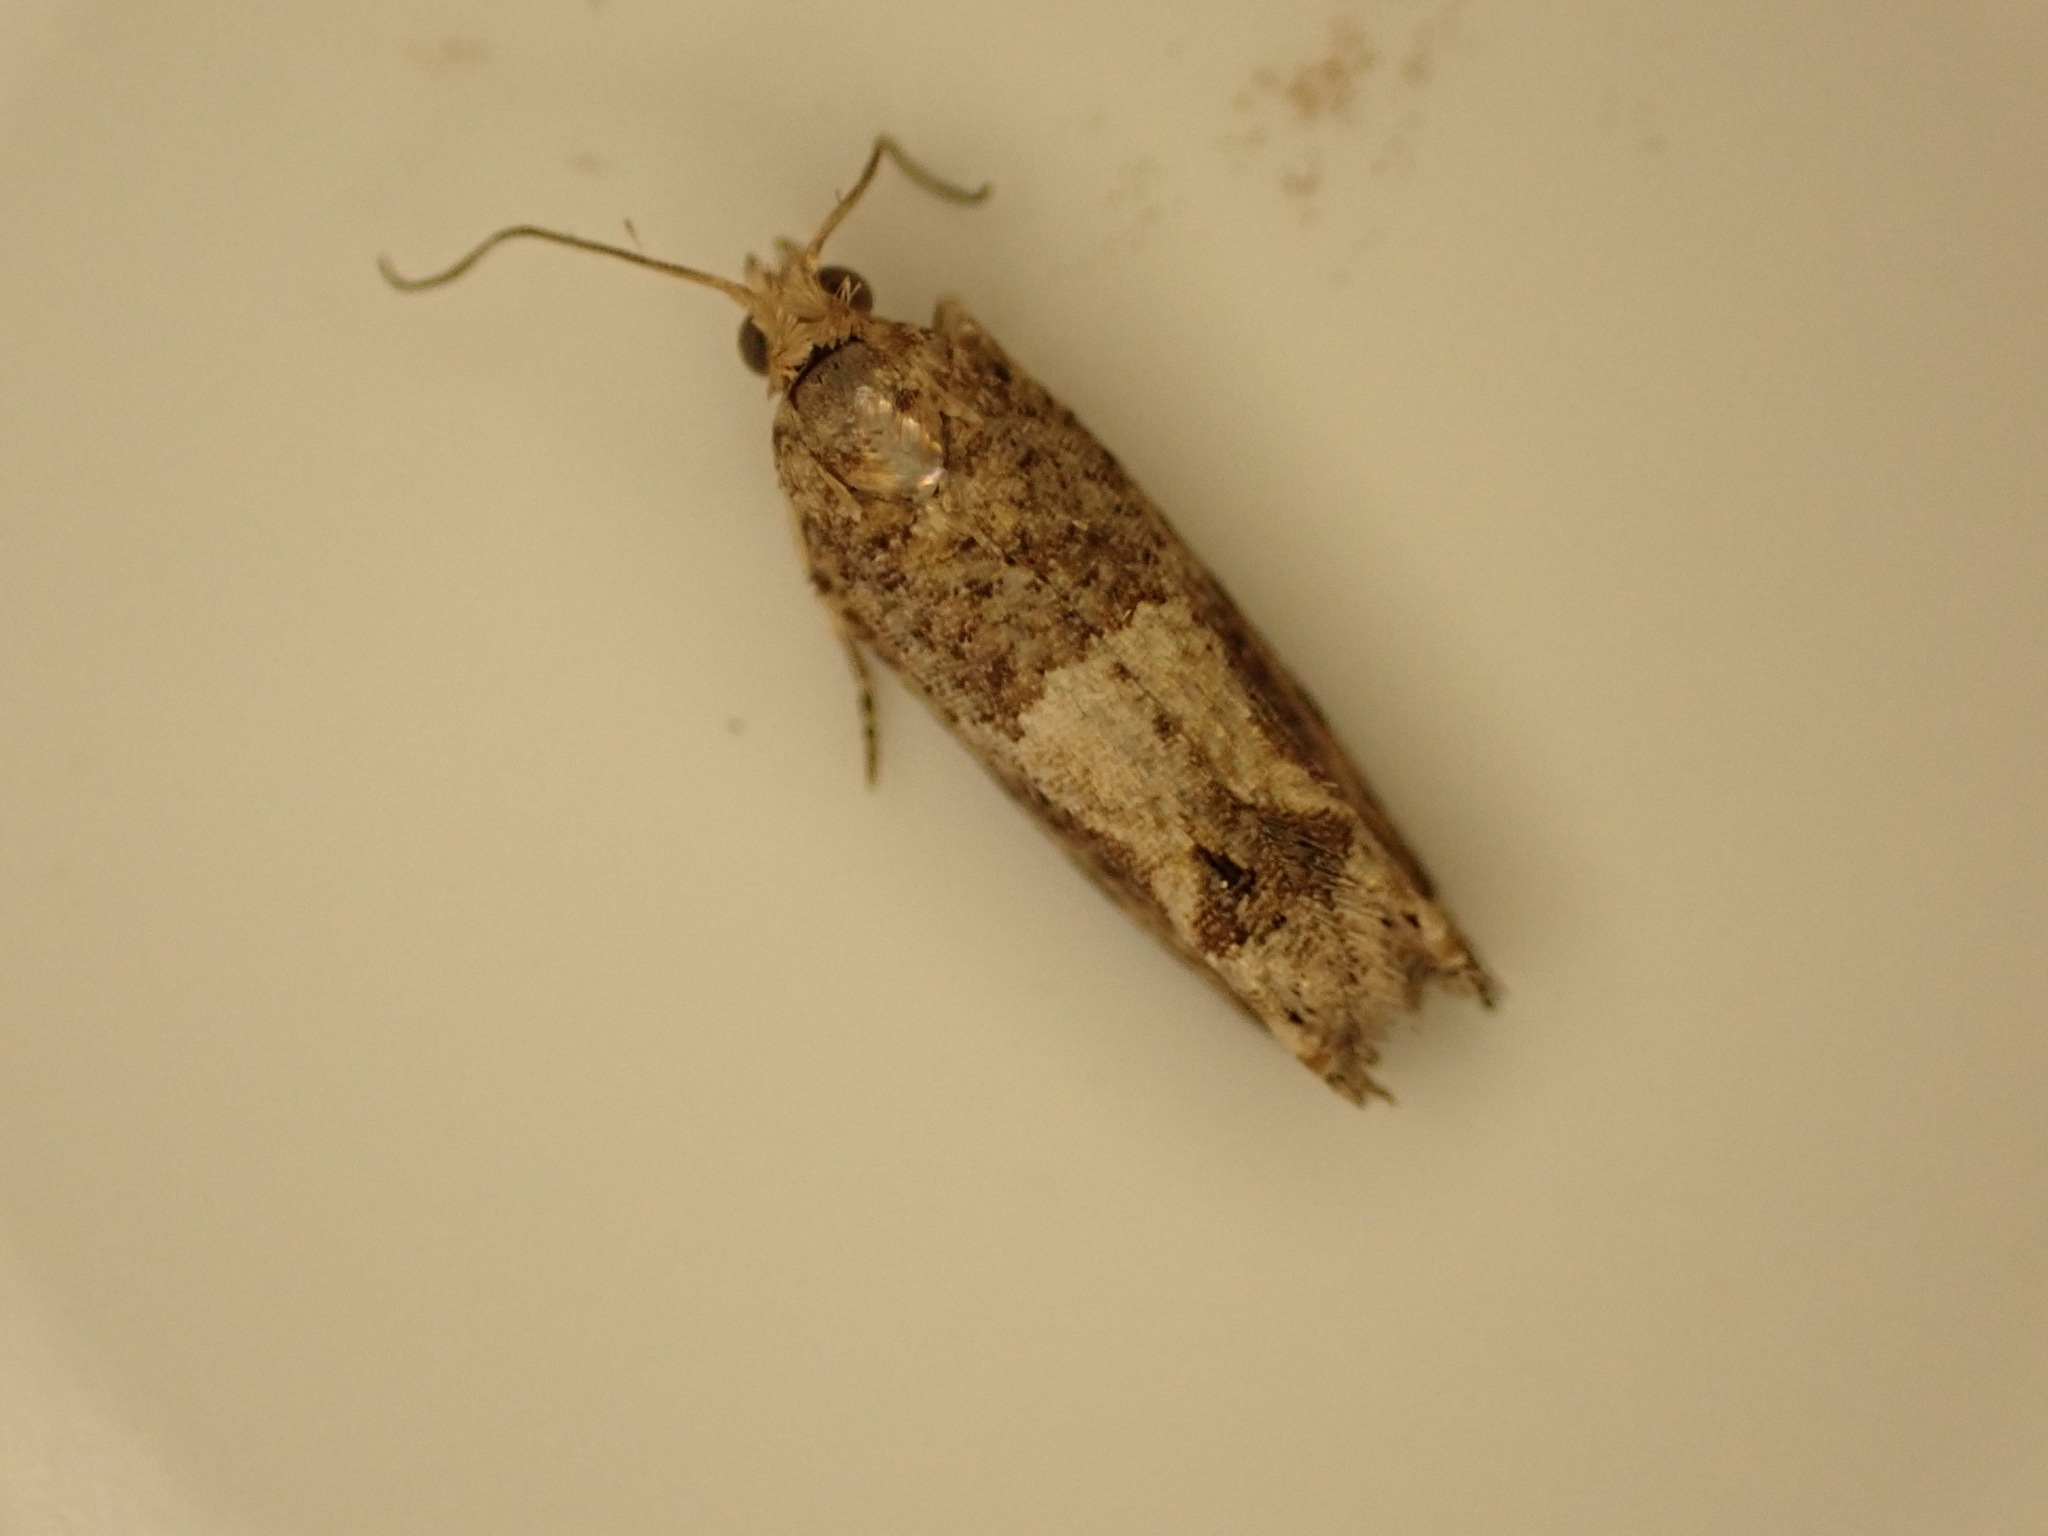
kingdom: Animalia
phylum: Arthropoda
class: Insecta
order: Lepidoptera
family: Tortricidae
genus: Crocidosema
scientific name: Crocidosema plebejana
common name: Southern bell
